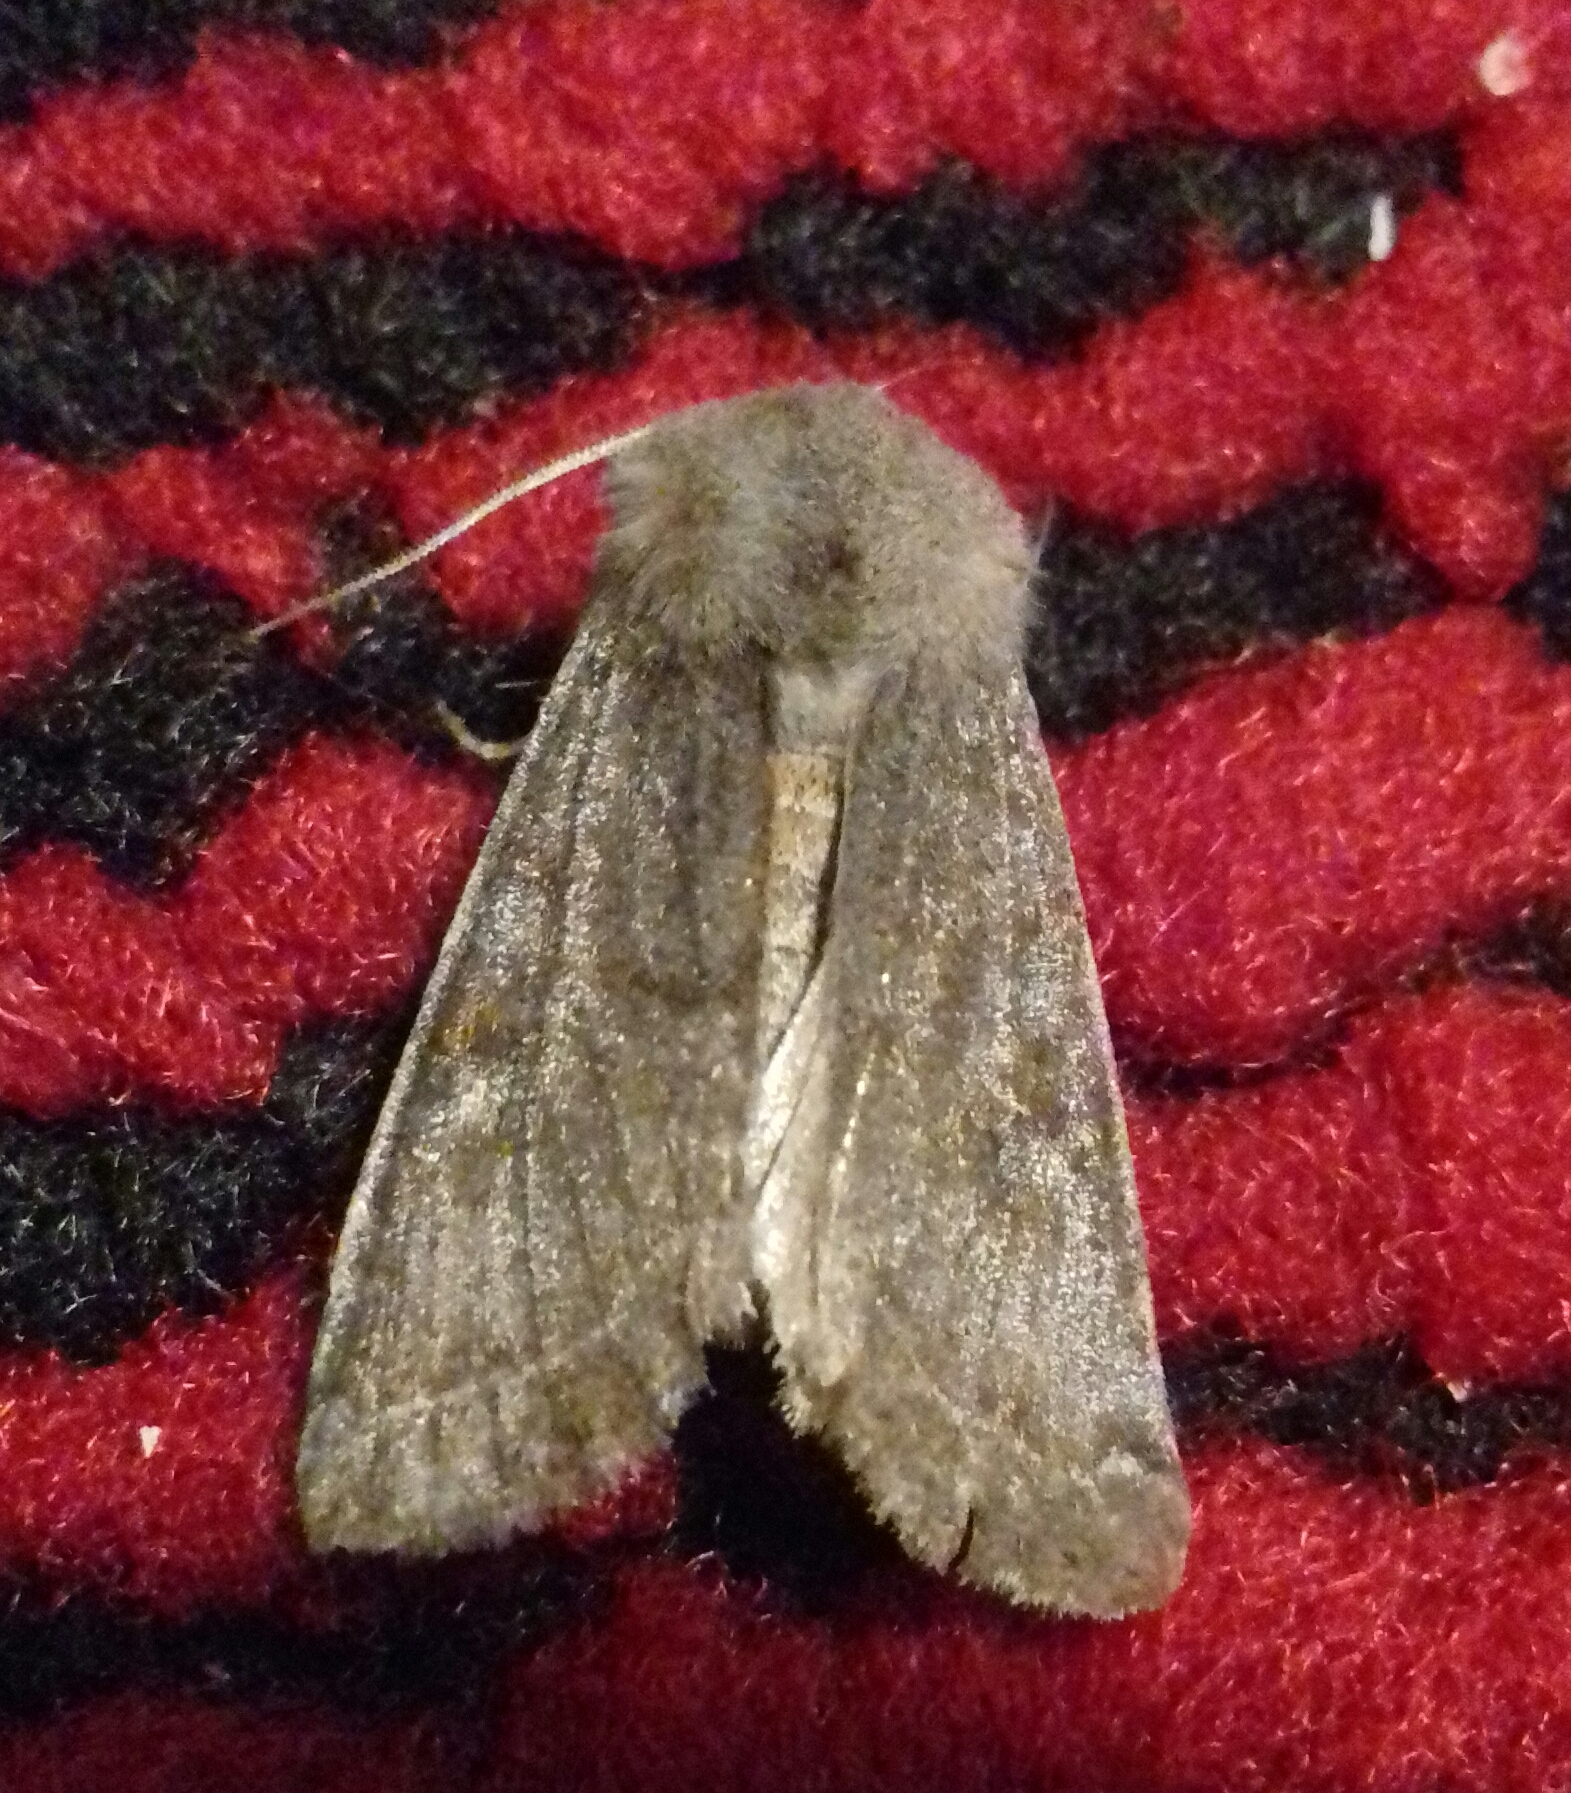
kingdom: Animalia
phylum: Arthropoda
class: Insecta
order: Lepidoptera
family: Noctuidae
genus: Orthosia
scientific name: Orthosia incerta
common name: Clouded drab
